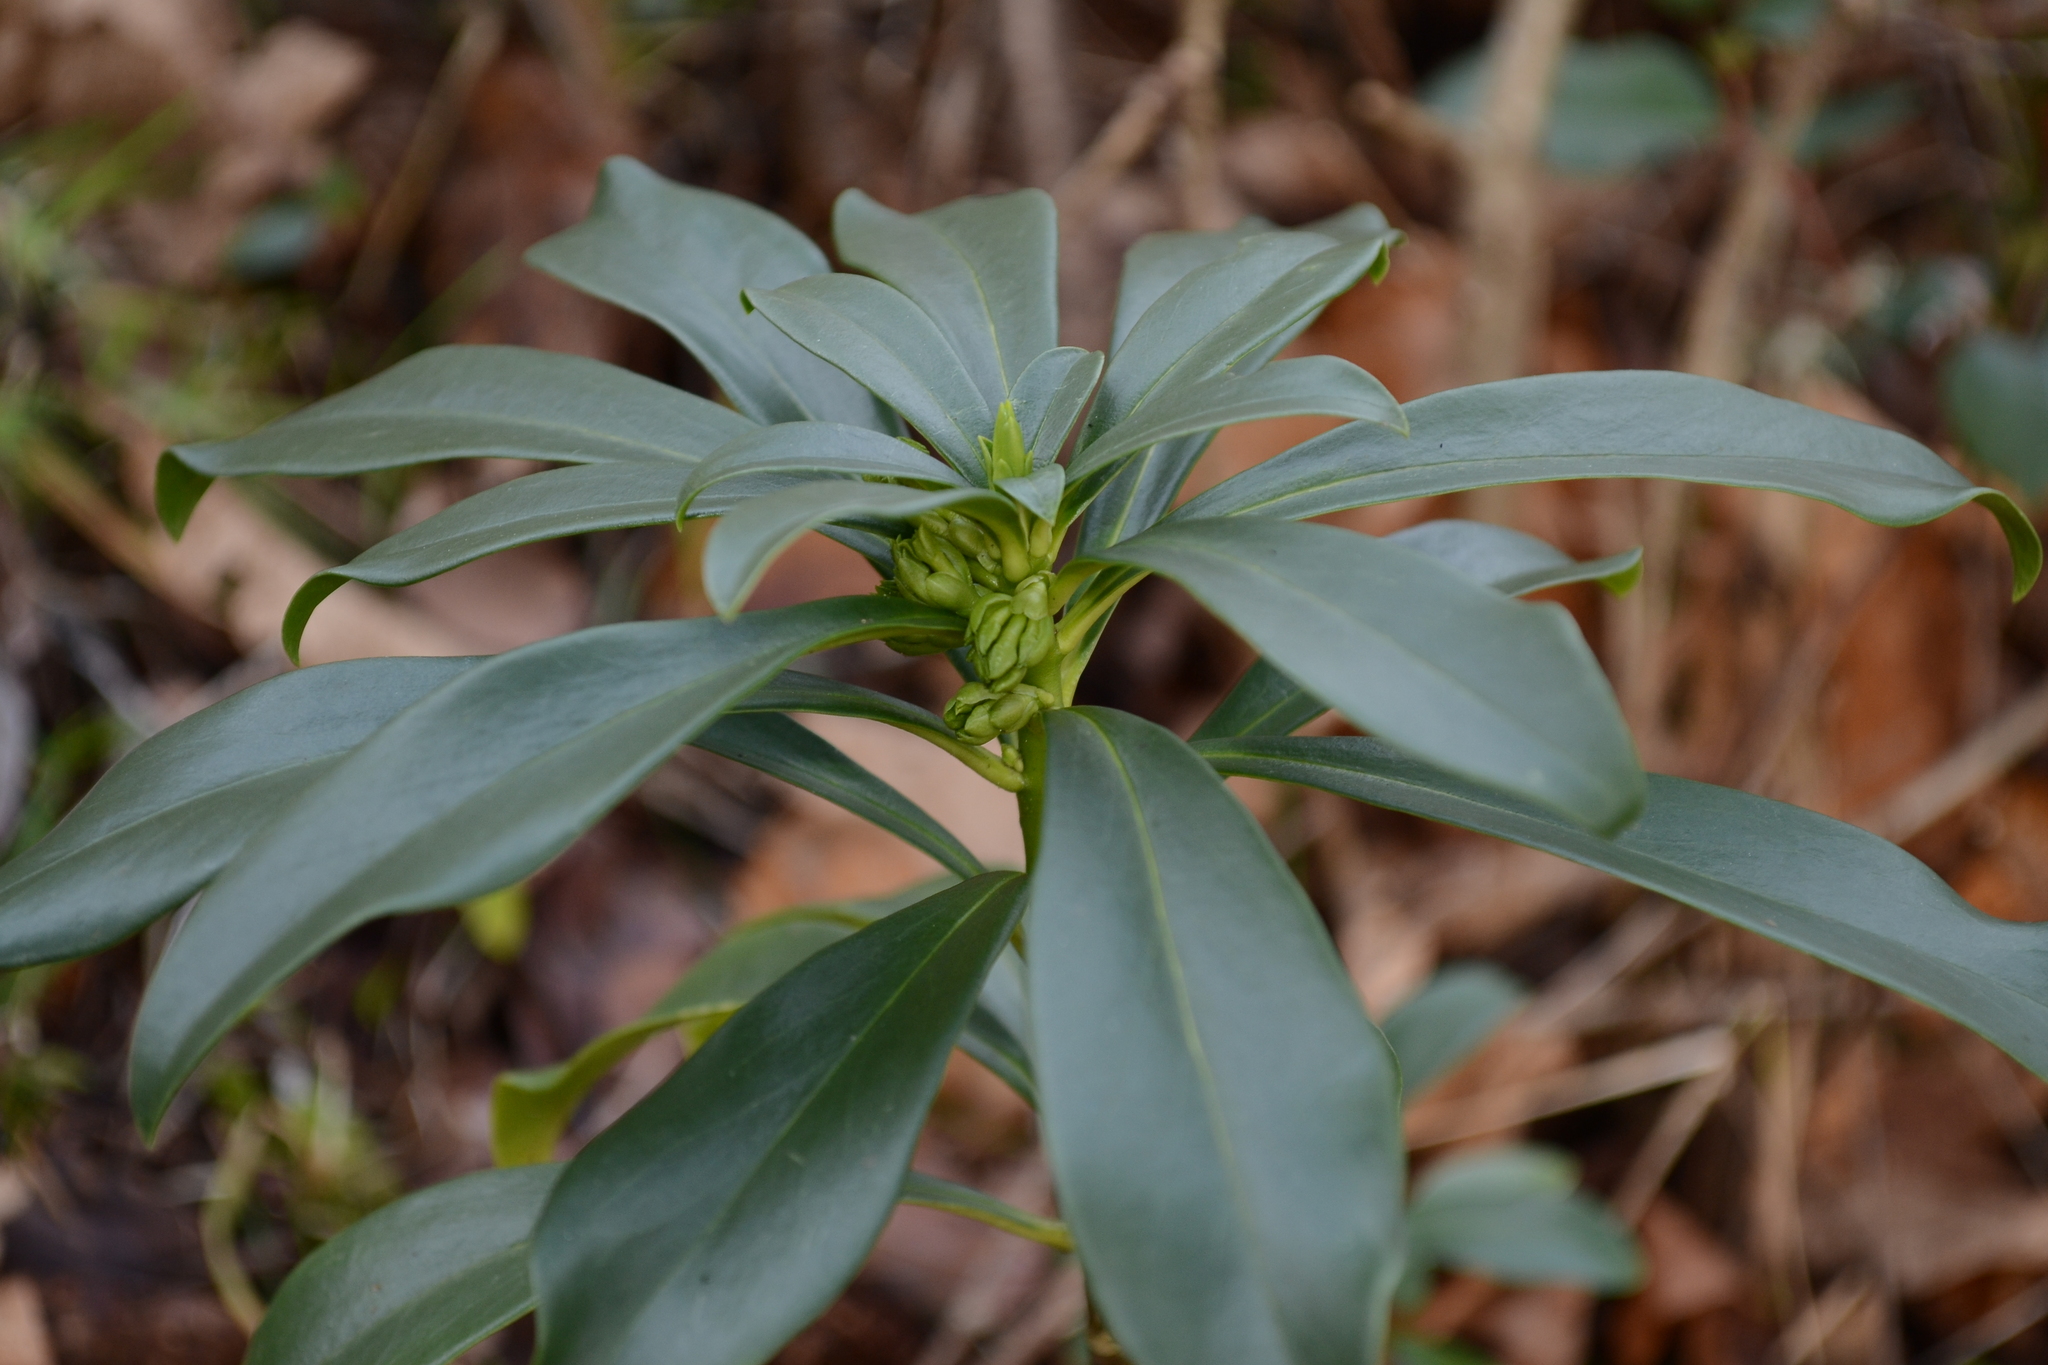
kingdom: Plantae
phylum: Tracheophyta
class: Magnoliopsida
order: Malvales
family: Thymelaeaceae
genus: Daphne
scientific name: Daphne laureola
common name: Spurge-laurel
